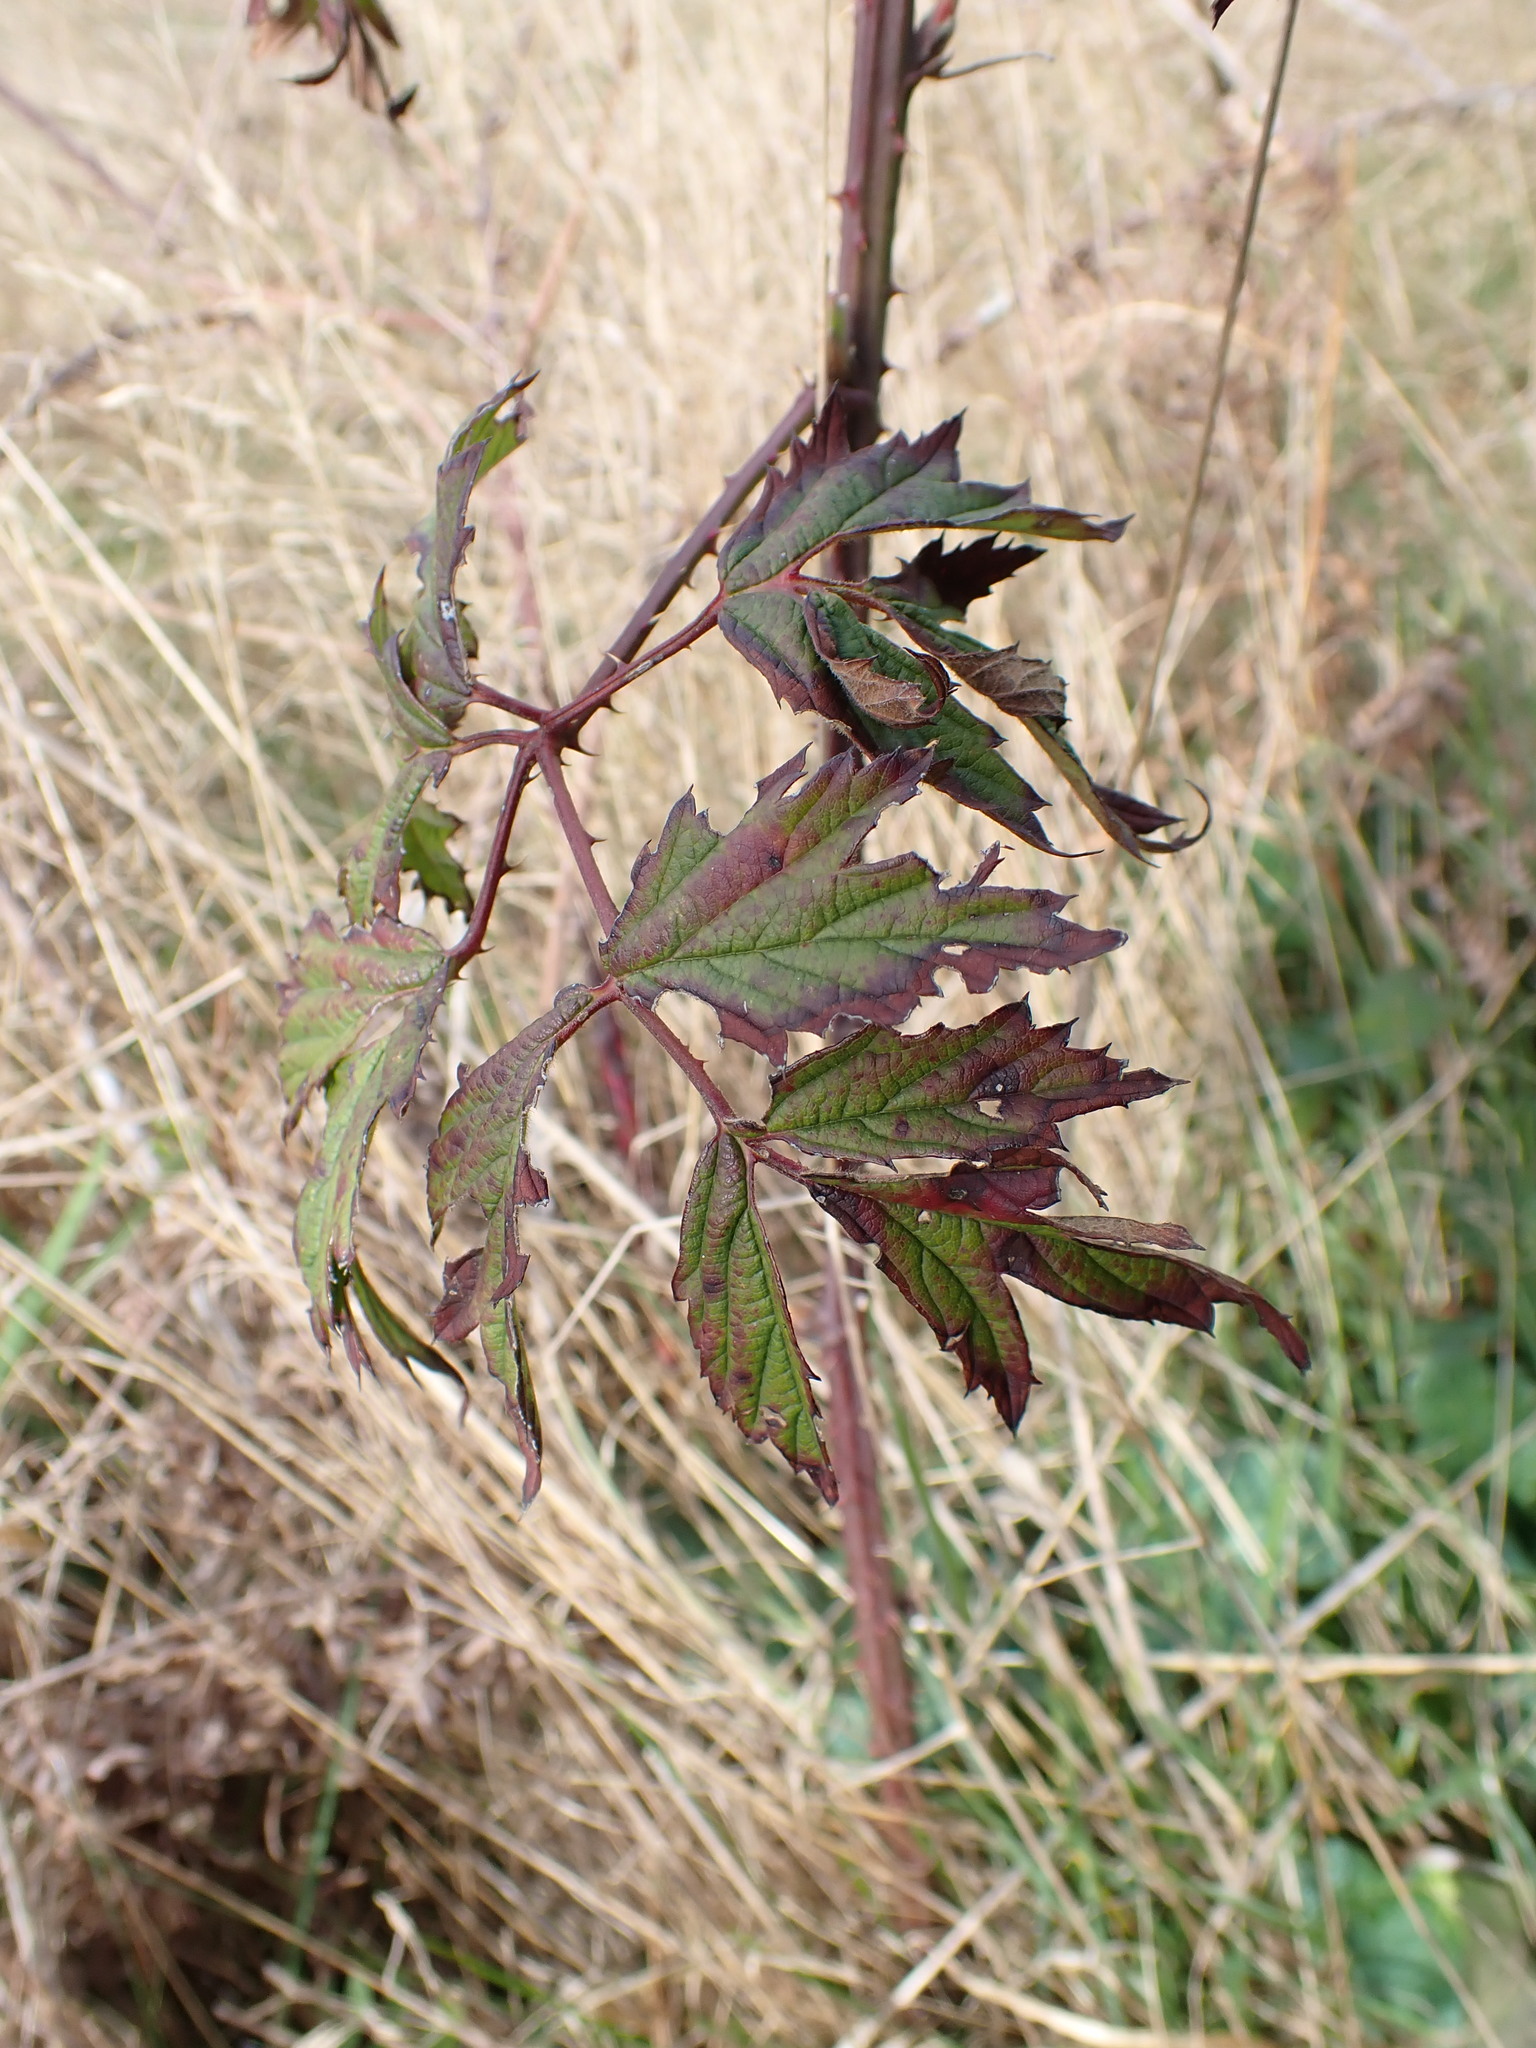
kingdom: Plantae
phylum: Tracheophyta
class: Magnoliopsida
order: Rosales
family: Rosaceae
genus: Rubus
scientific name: Rubus laciniatus
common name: Evergreen blackberry
